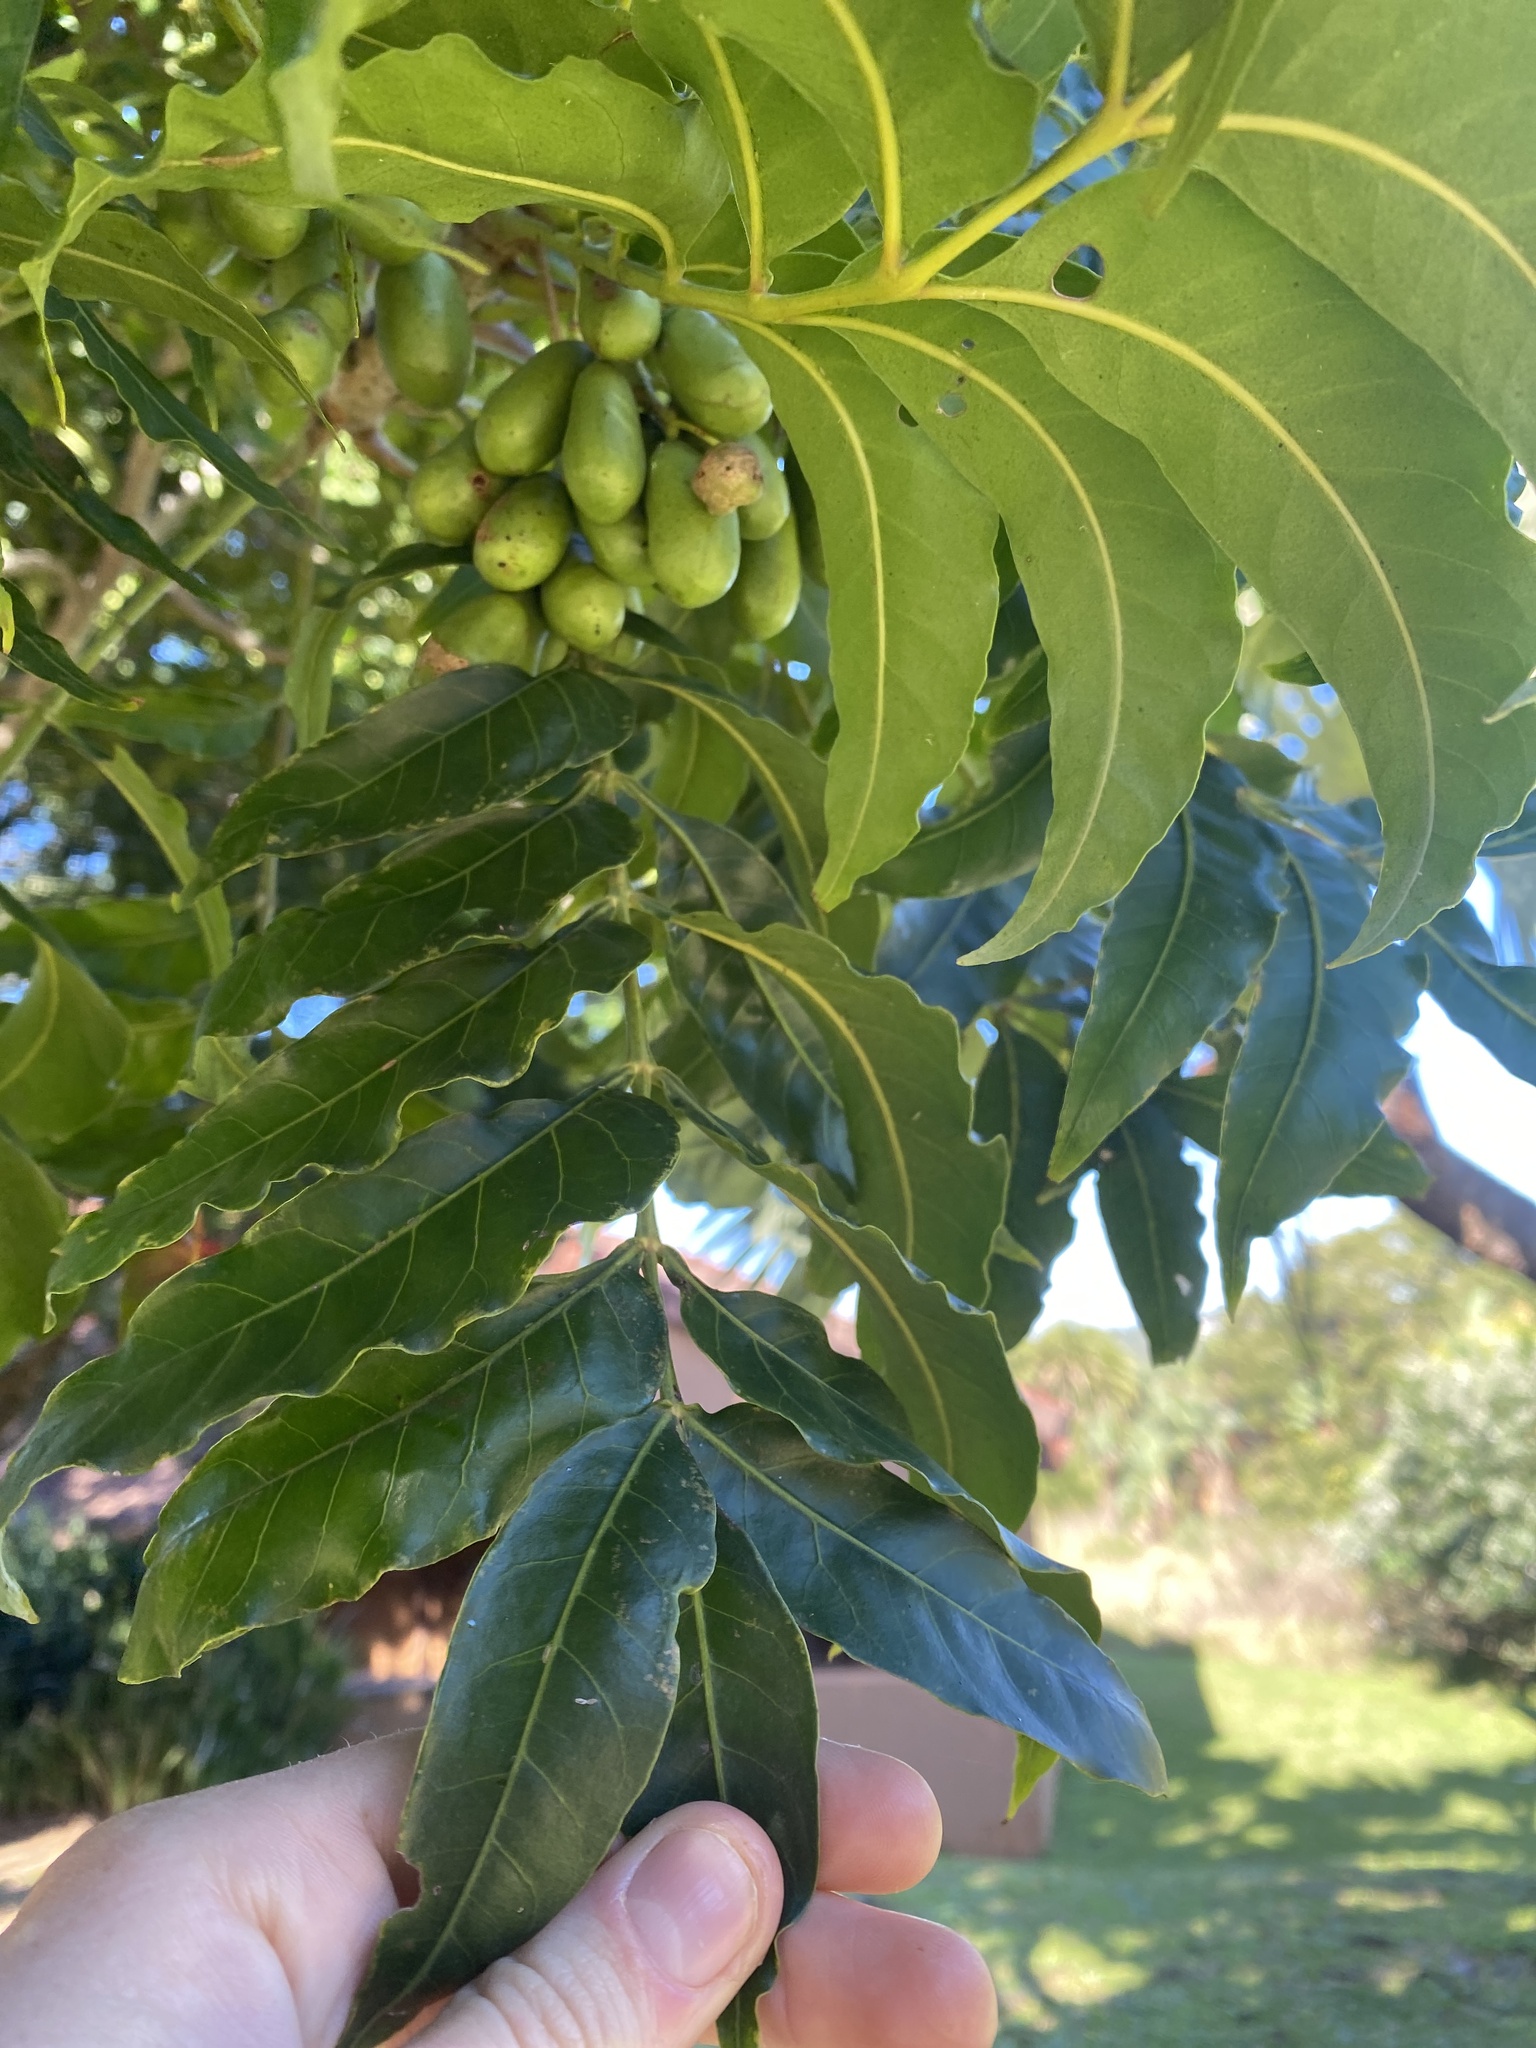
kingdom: Plantae
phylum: Tracheophyta
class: Magnoliopsida
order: Sapindales
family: Anacardiaceae
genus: Harpephyllum
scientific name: Harpephyllum caffrum
